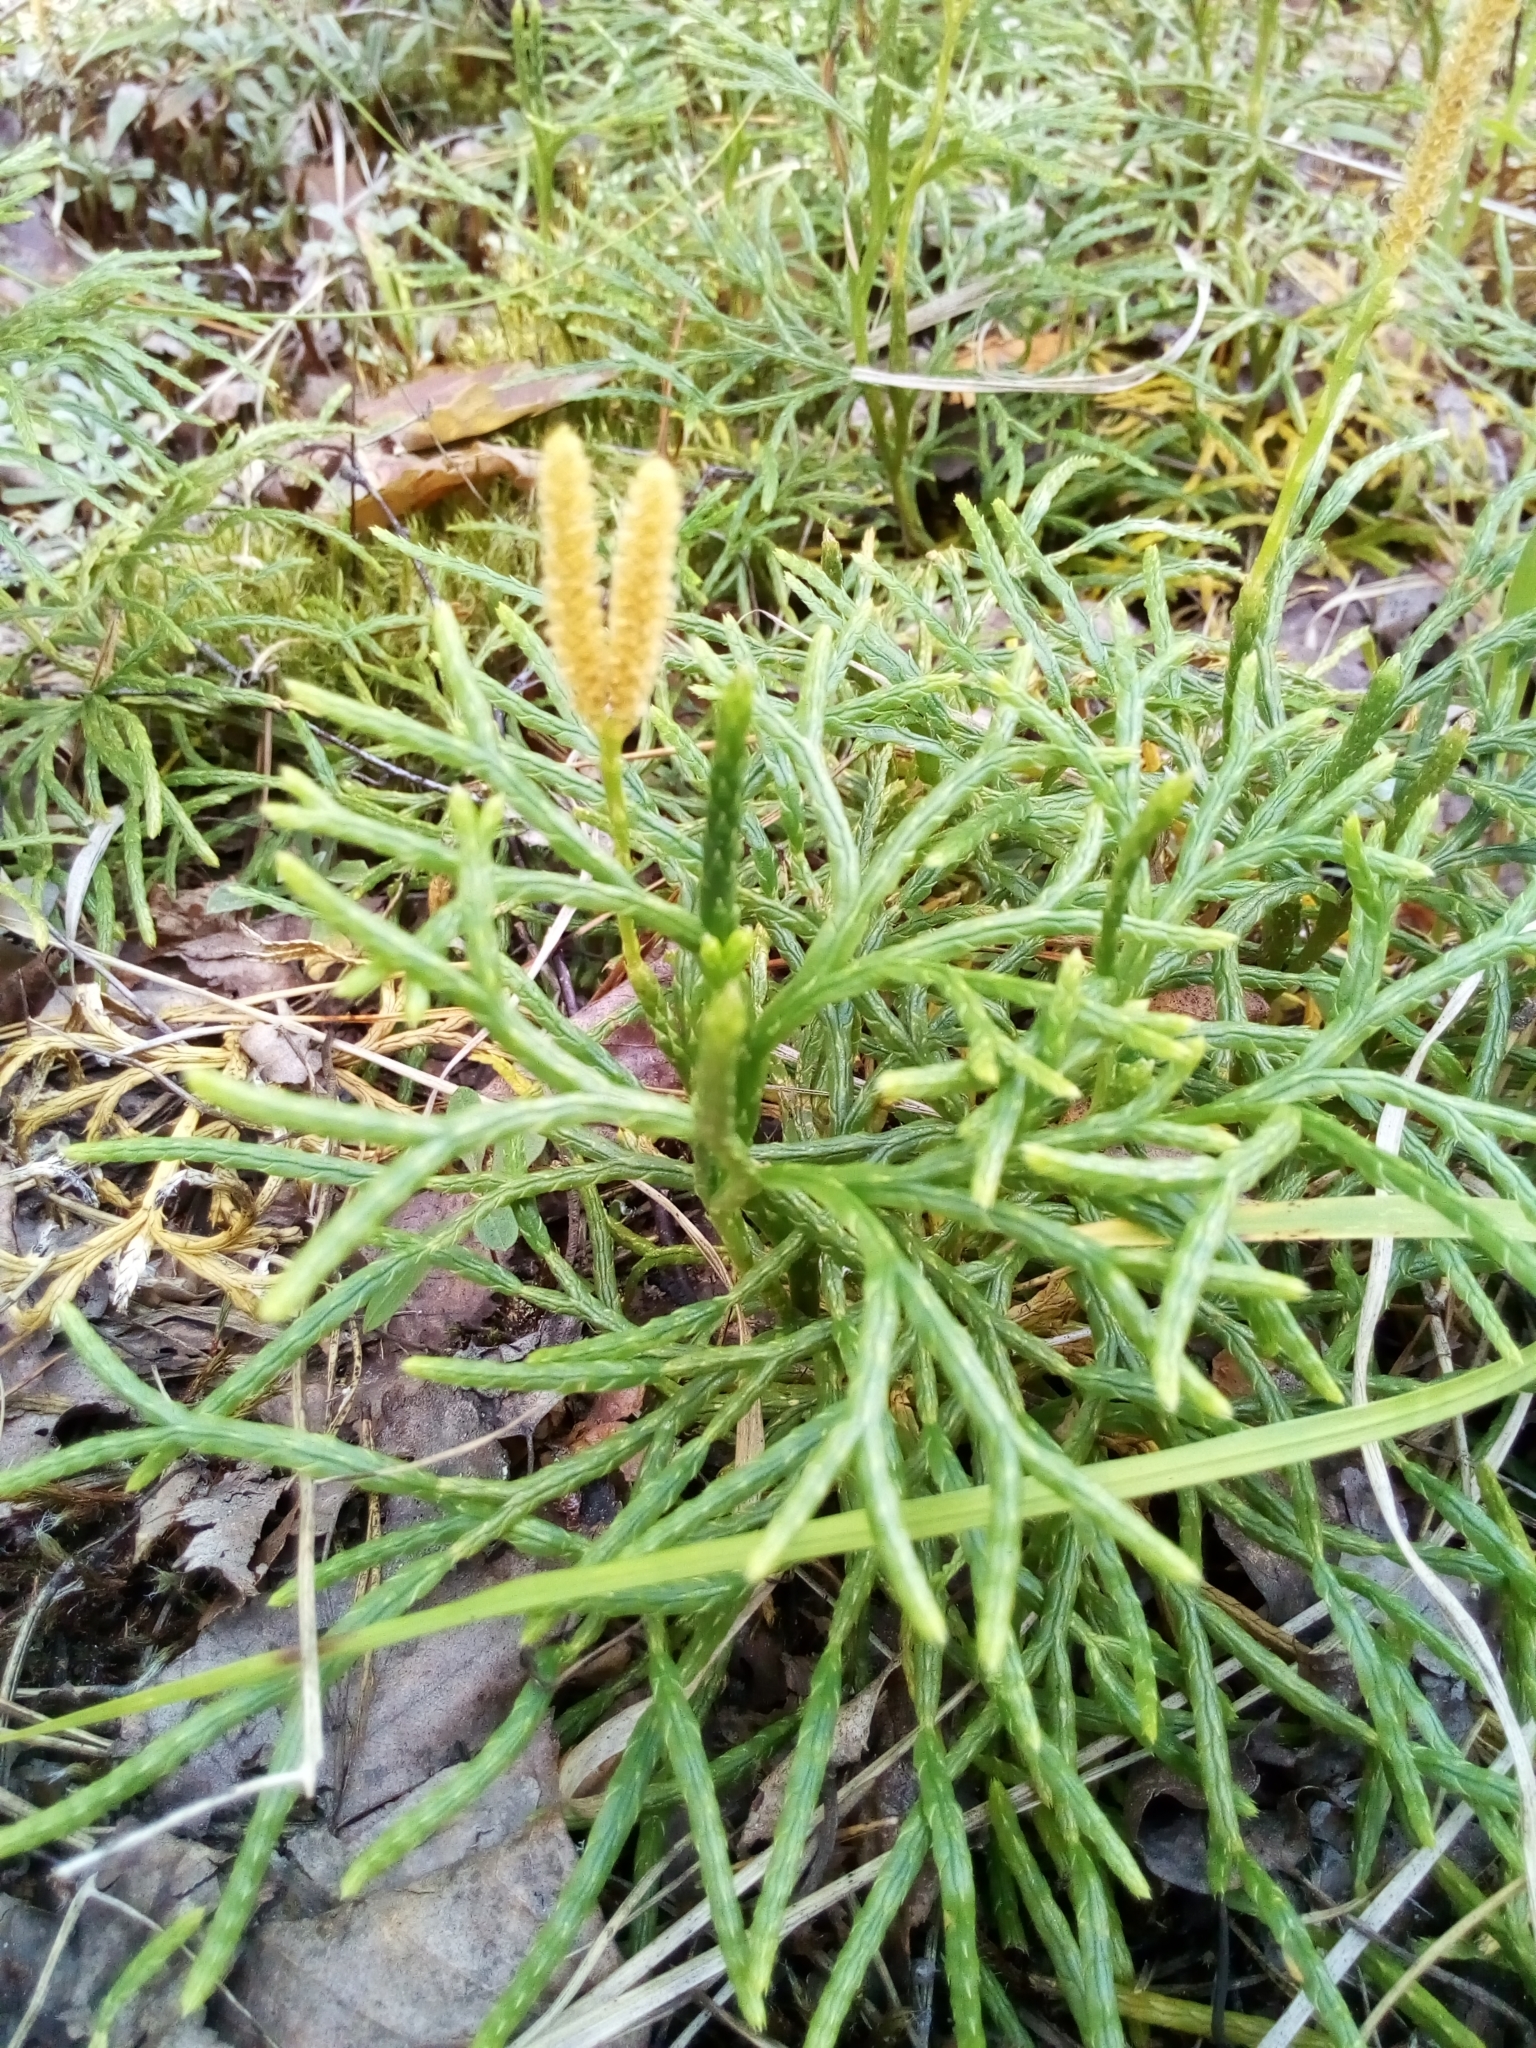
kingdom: Plantae
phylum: Tracheophyta
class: Lycopodiopsida
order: Lycopodiales
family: Lycopodiaceae
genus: Diphasiastrum
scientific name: Diphasiastrum complanatum
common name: Northern running-pine
